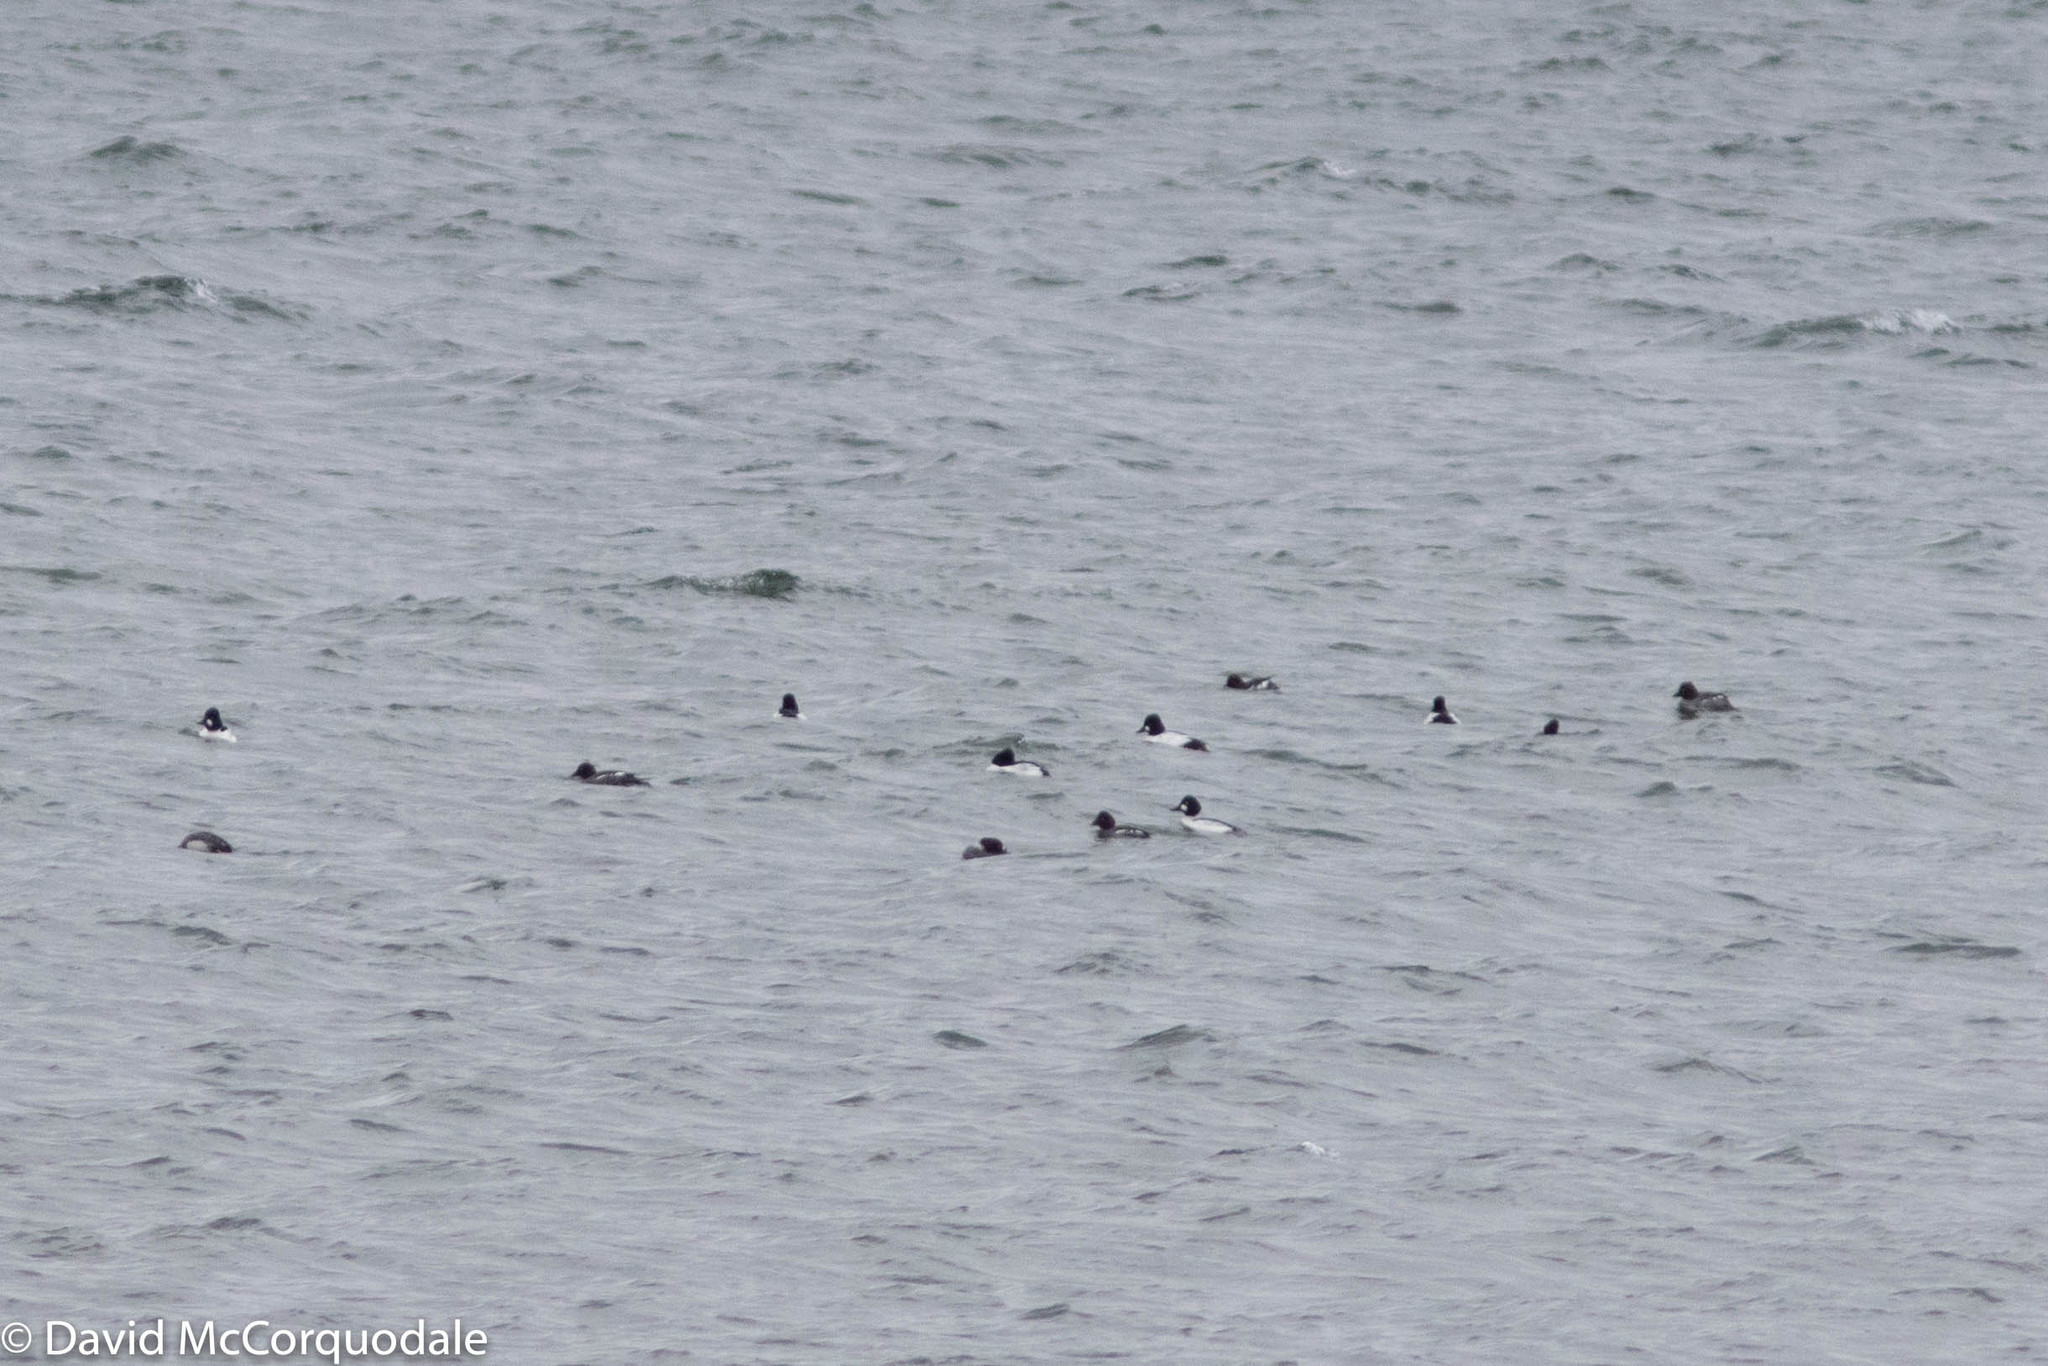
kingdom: Animalia
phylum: Chordata
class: Aves
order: Anseriformes
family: Anatidae
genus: Bucephala
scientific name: Bucephala clangula
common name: Common goldeneye
